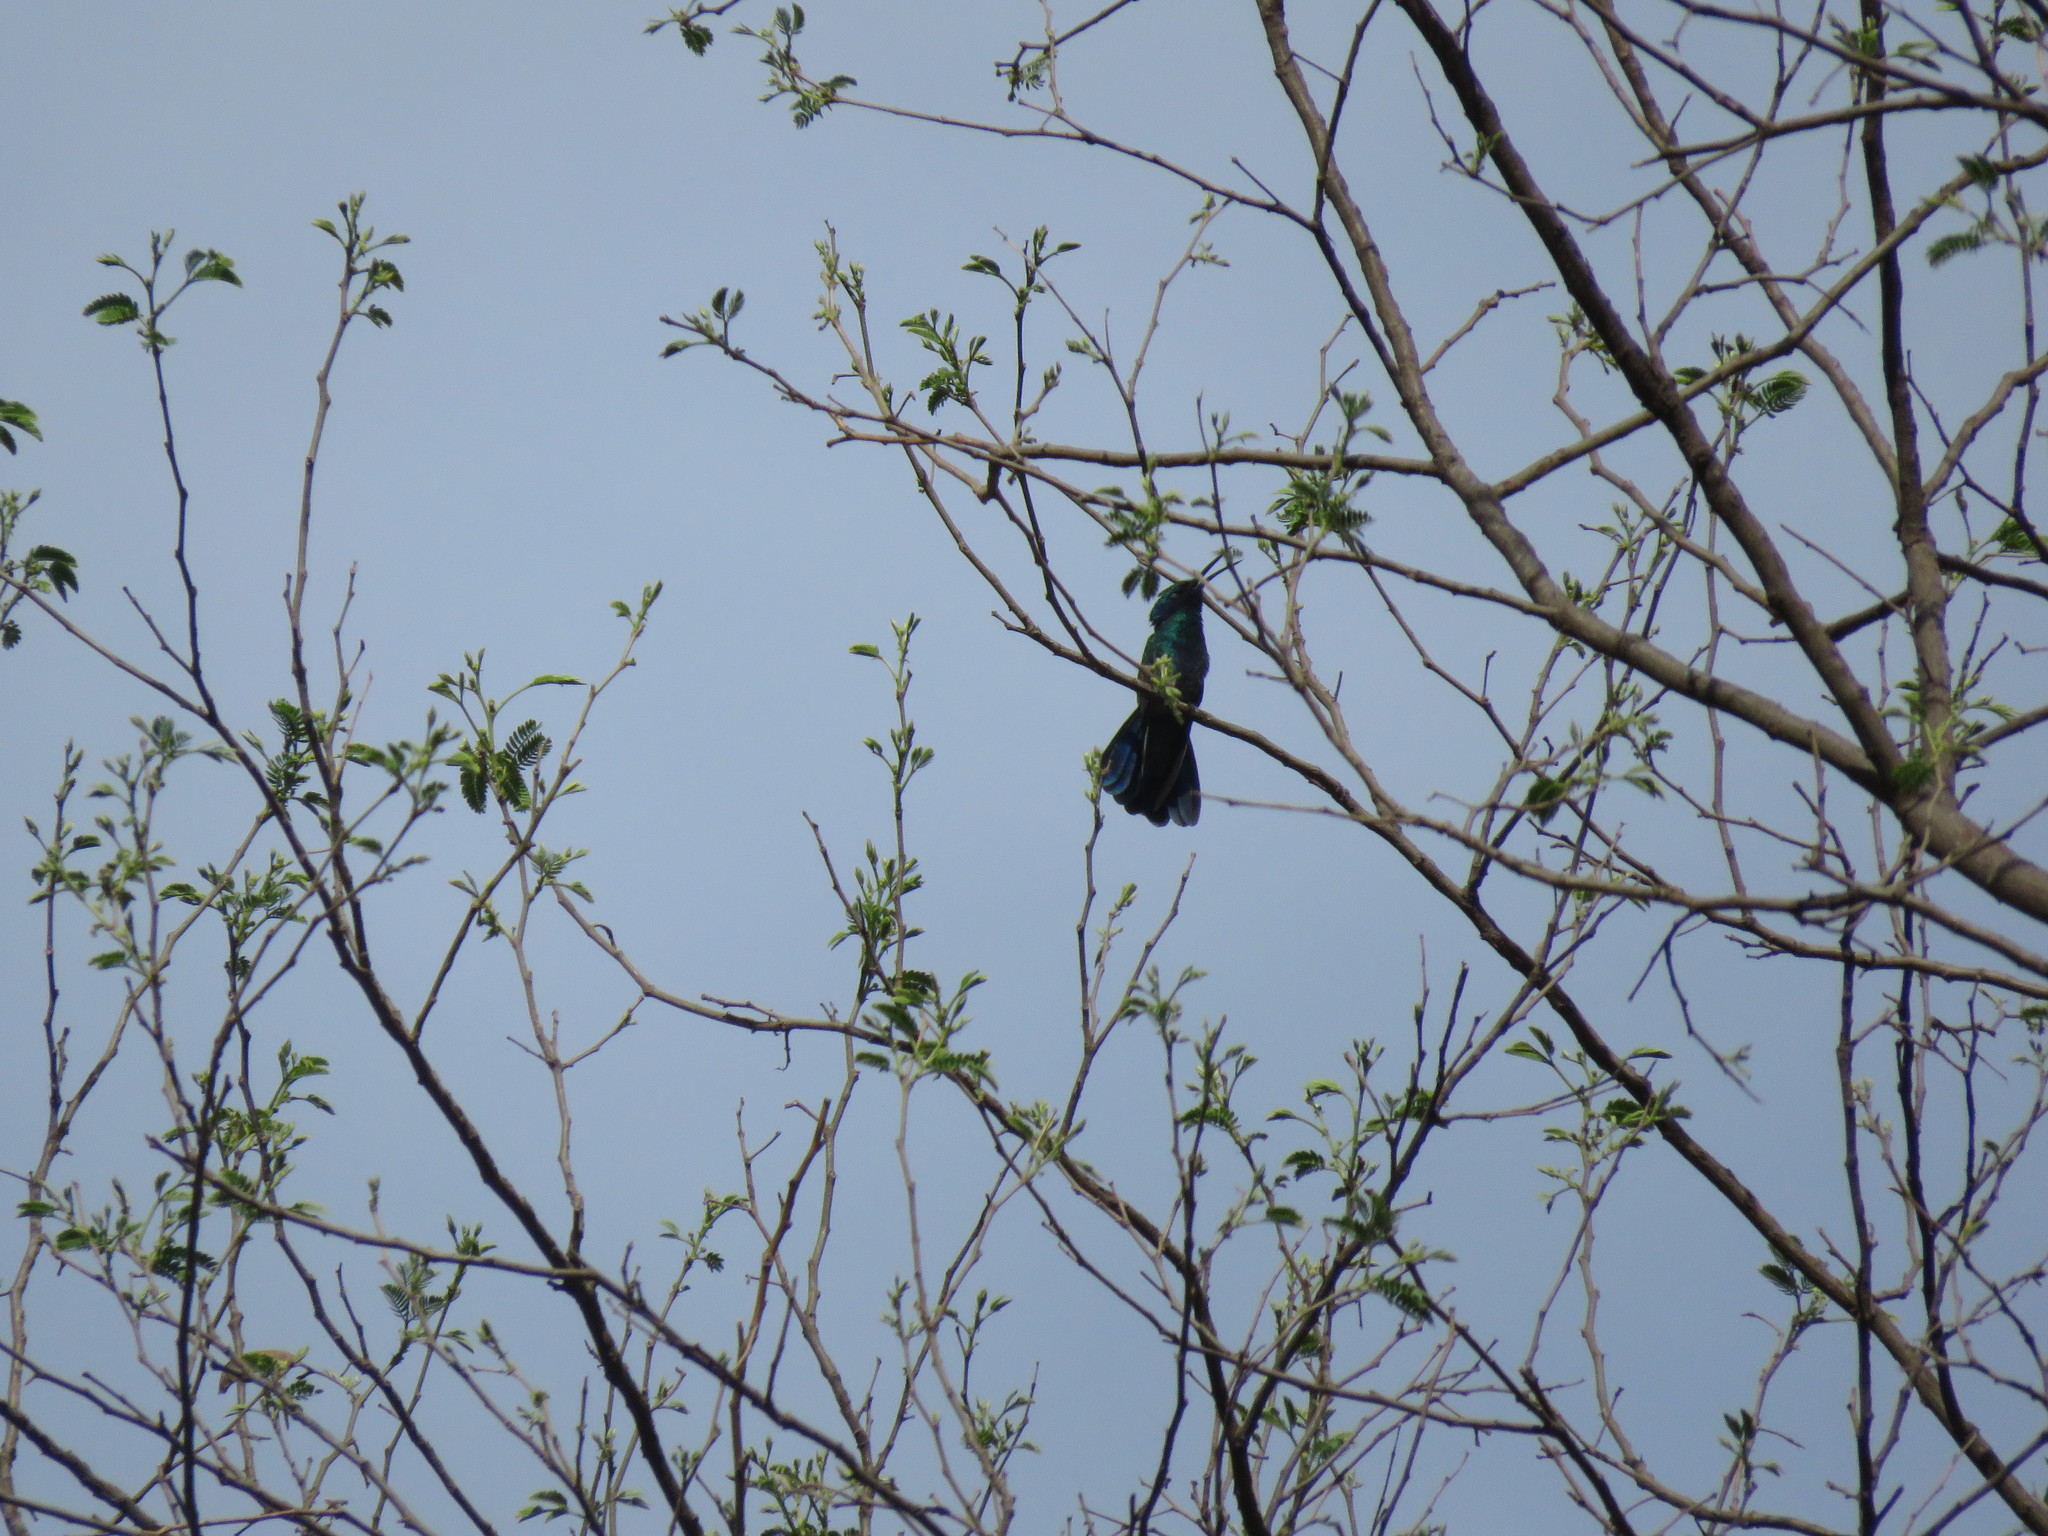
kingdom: Animalia
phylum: Chordata
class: Aves
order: Apodiformes
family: Trochilidae
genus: Colibri
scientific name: Colibri coruscans
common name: Sparkling violetear
